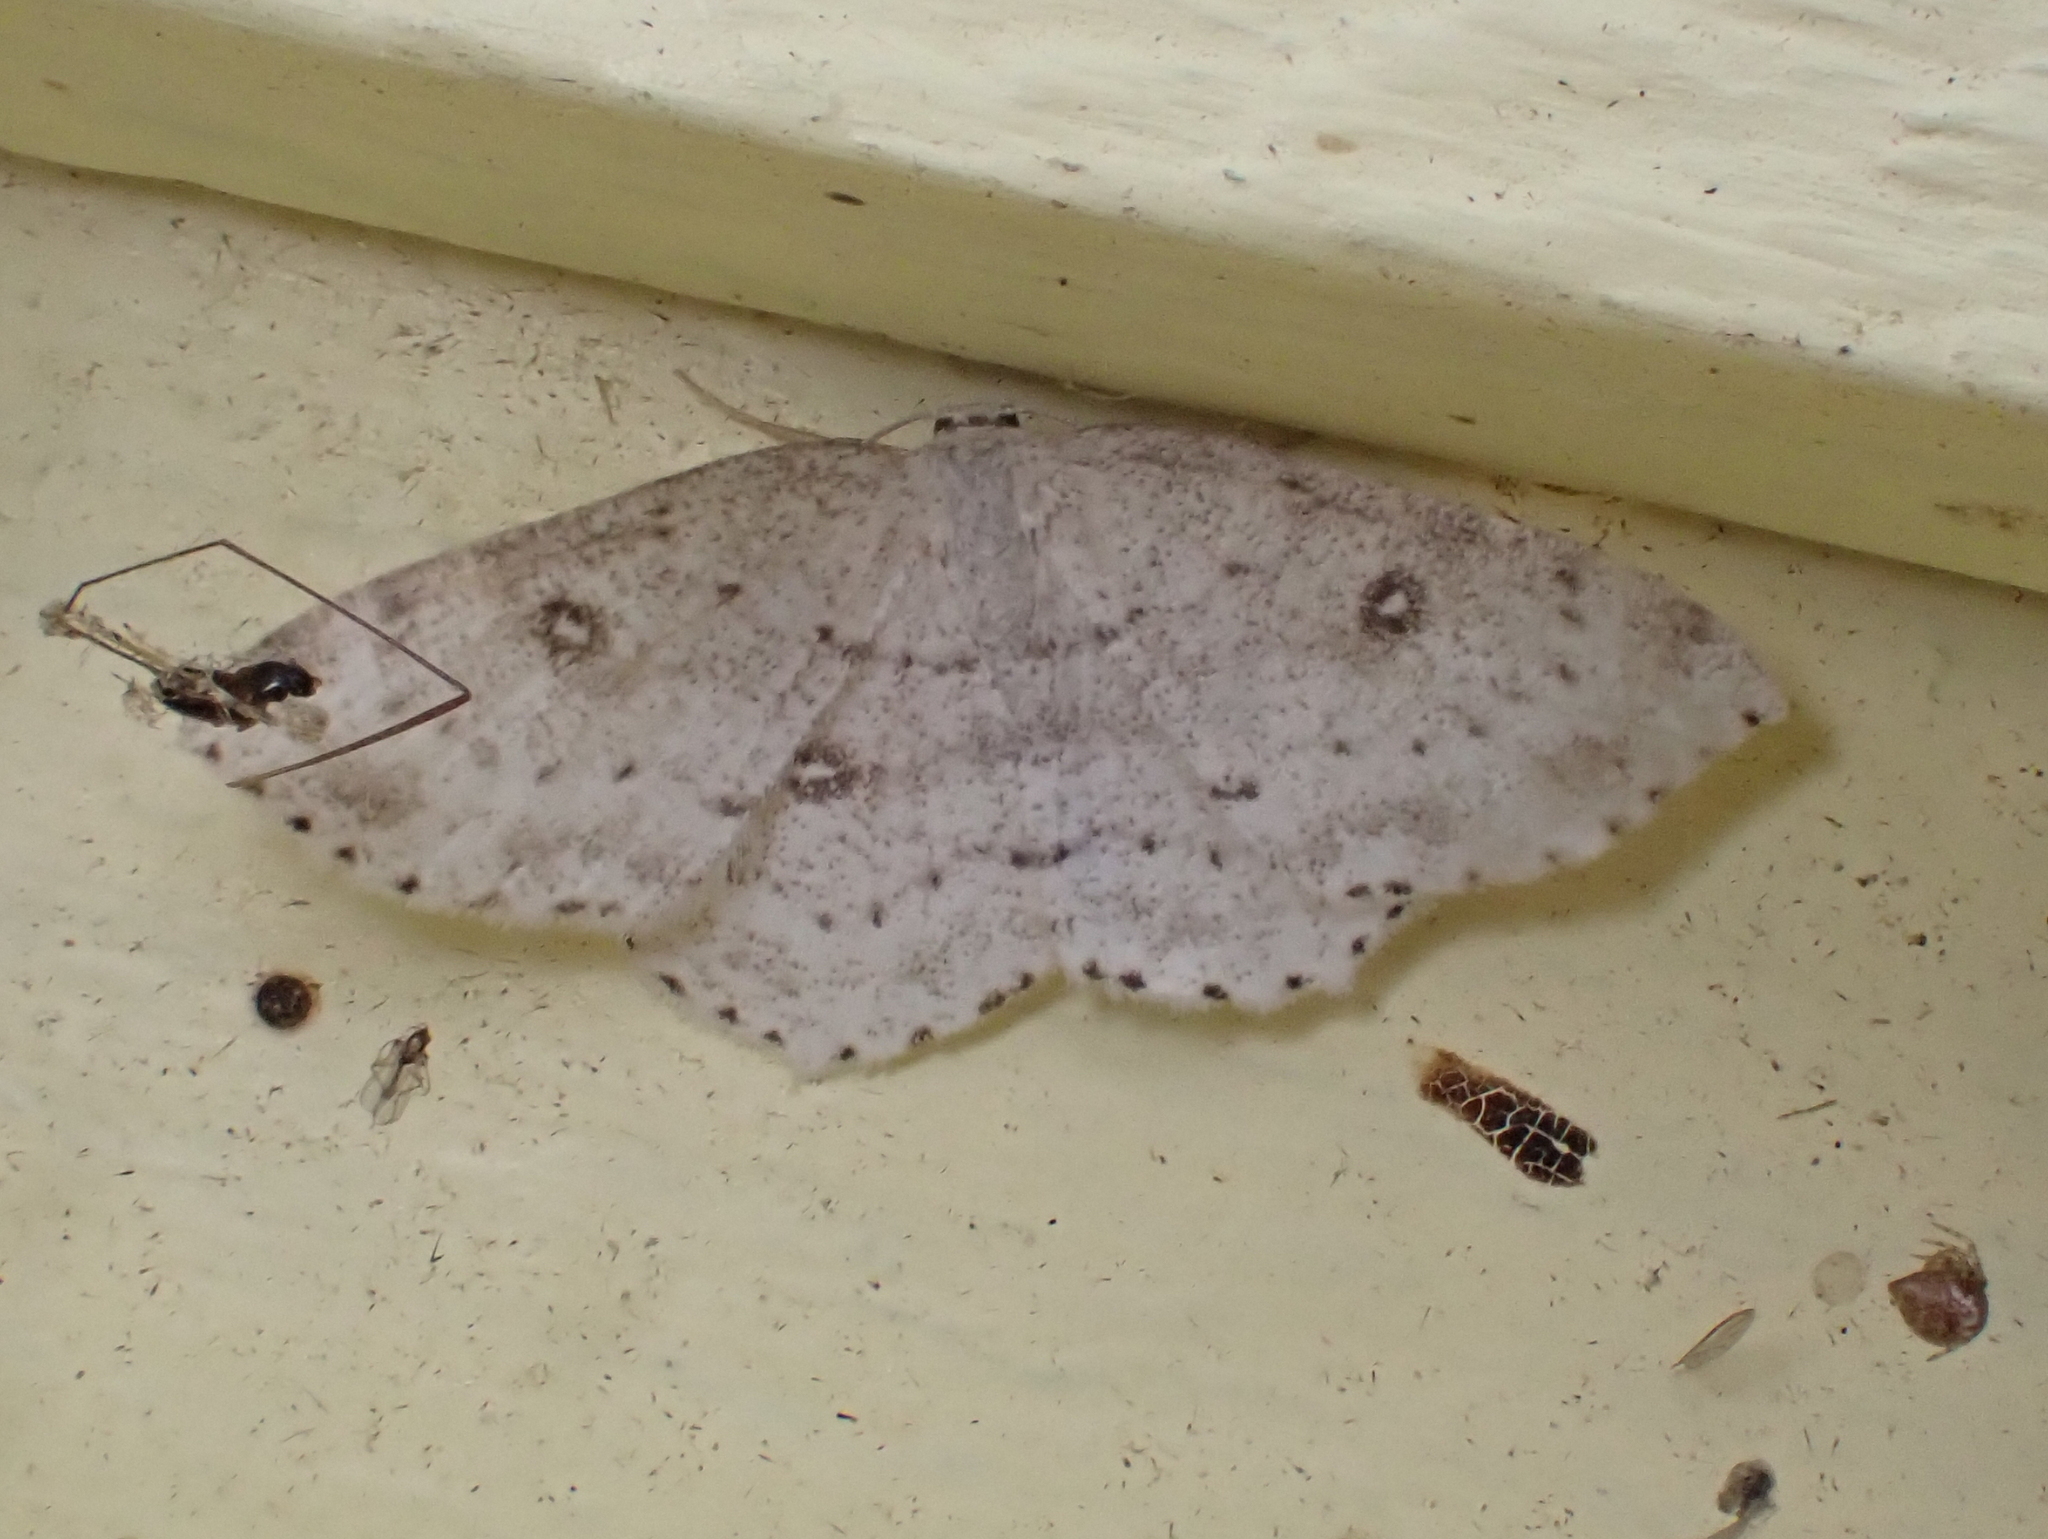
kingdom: Animalia
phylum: Arthropoda
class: Insecta
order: Lepidoptera
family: Geometridae
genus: Cyclophora
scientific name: Cyclophora pendulinaria
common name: Sweet fern geometer
